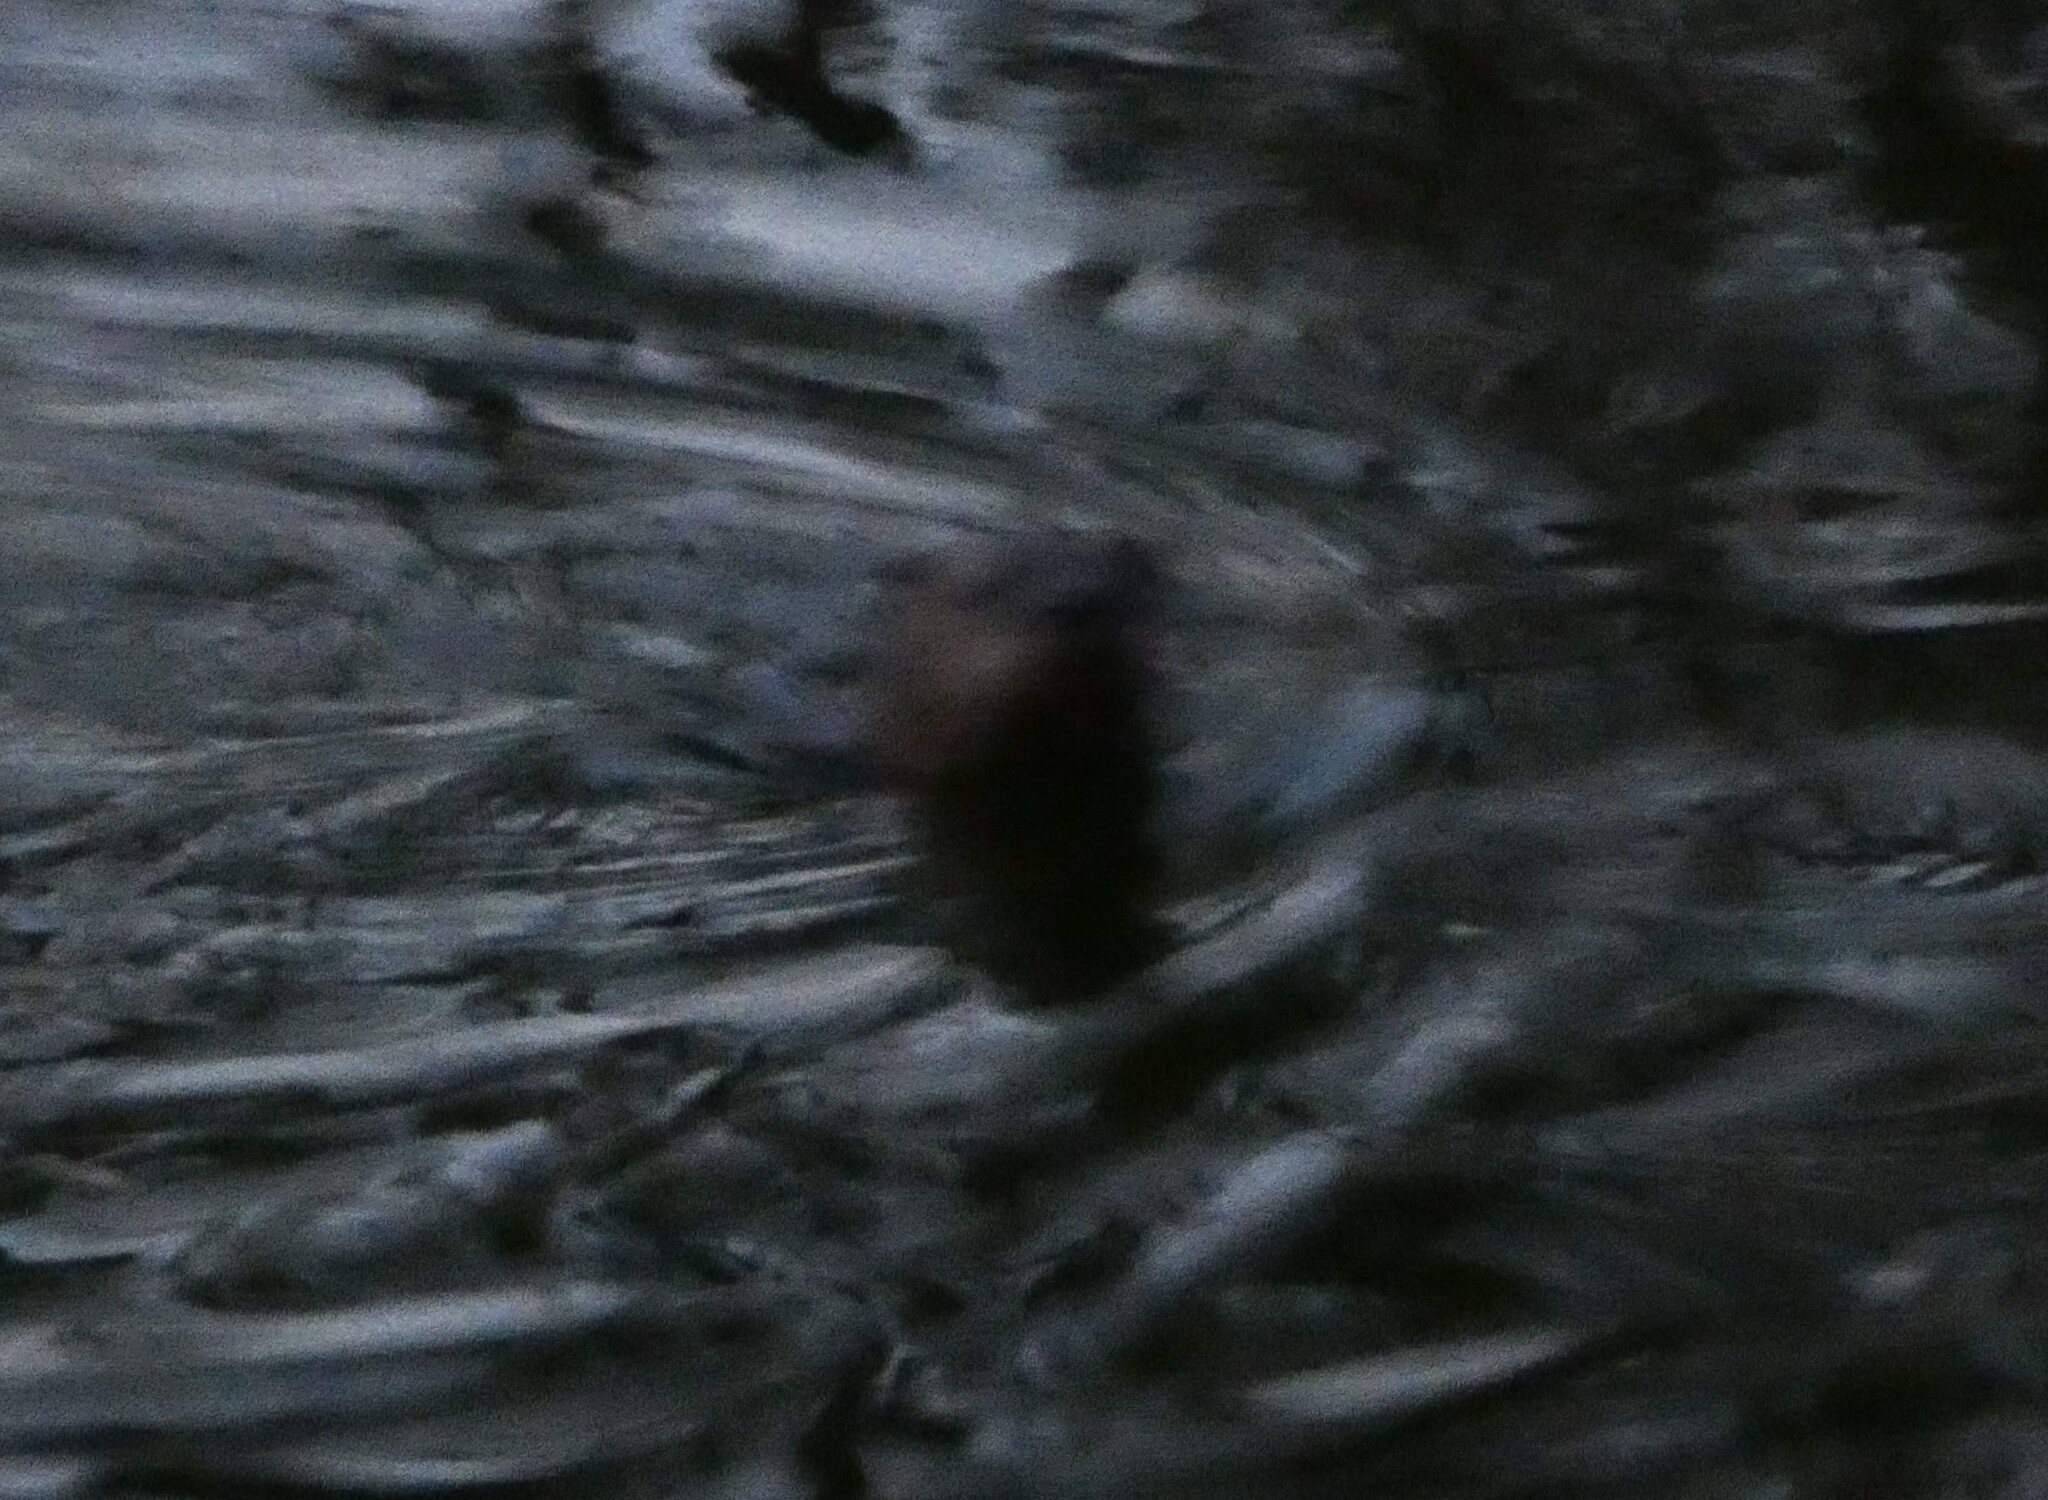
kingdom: Animalia
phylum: Chordata
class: Mammalia
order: Carnivora
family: Mustelidae
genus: Lontra
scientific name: Lontra canadensis
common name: North american river otter
